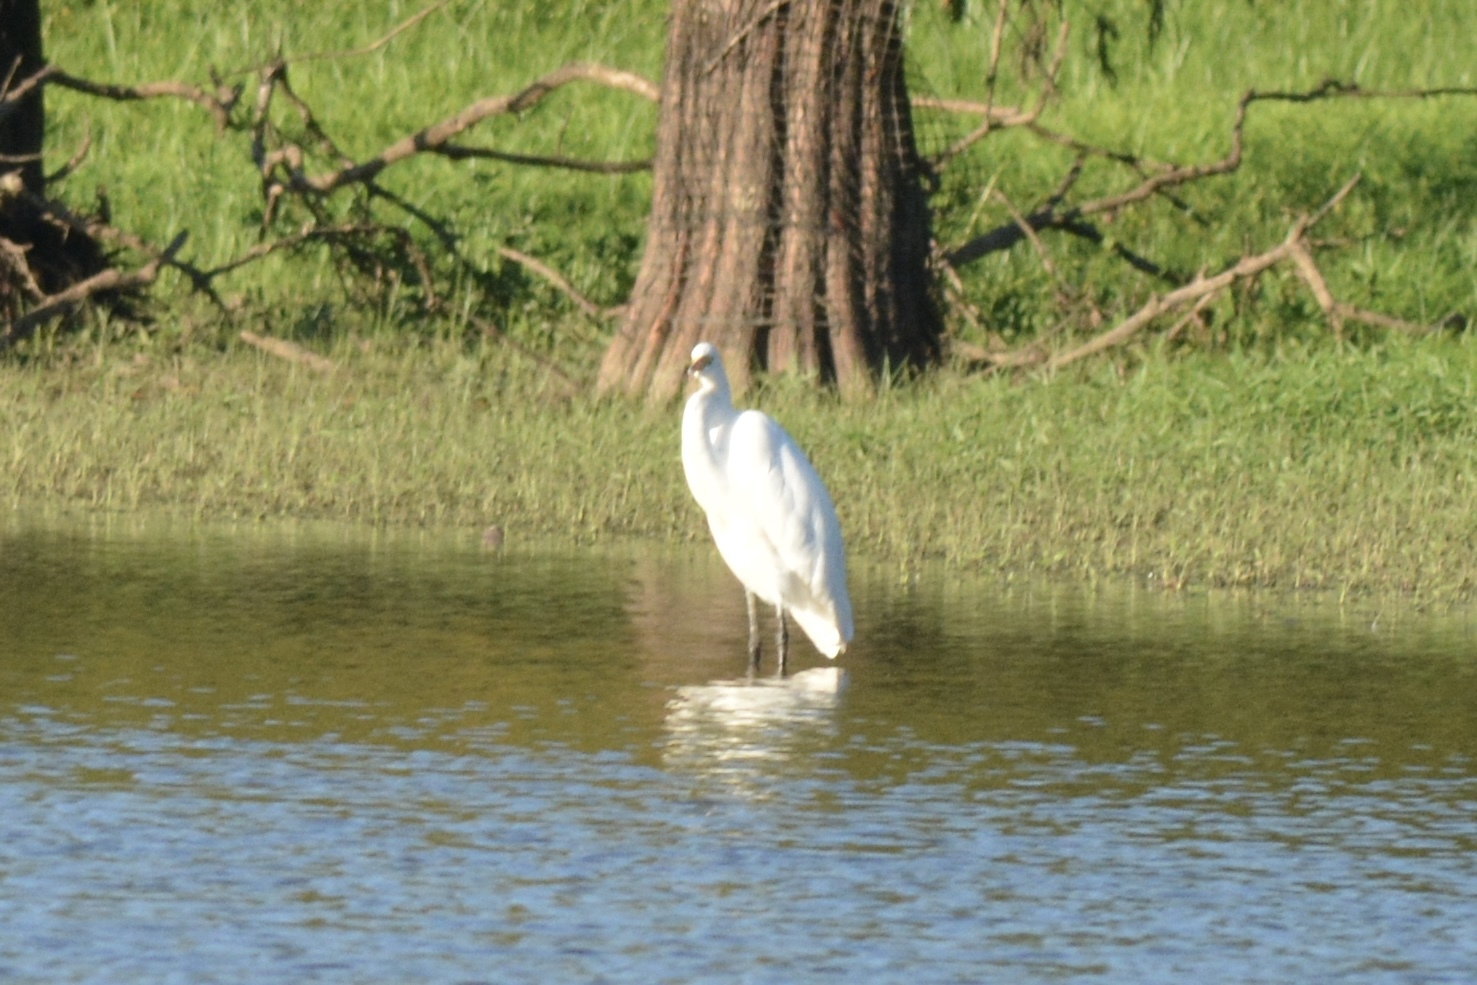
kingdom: Animalia
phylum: Chordata
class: Aves
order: Pelecaniformes
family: Ardeidae
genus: Ardea
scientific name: Ardea alba
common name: Great egret
